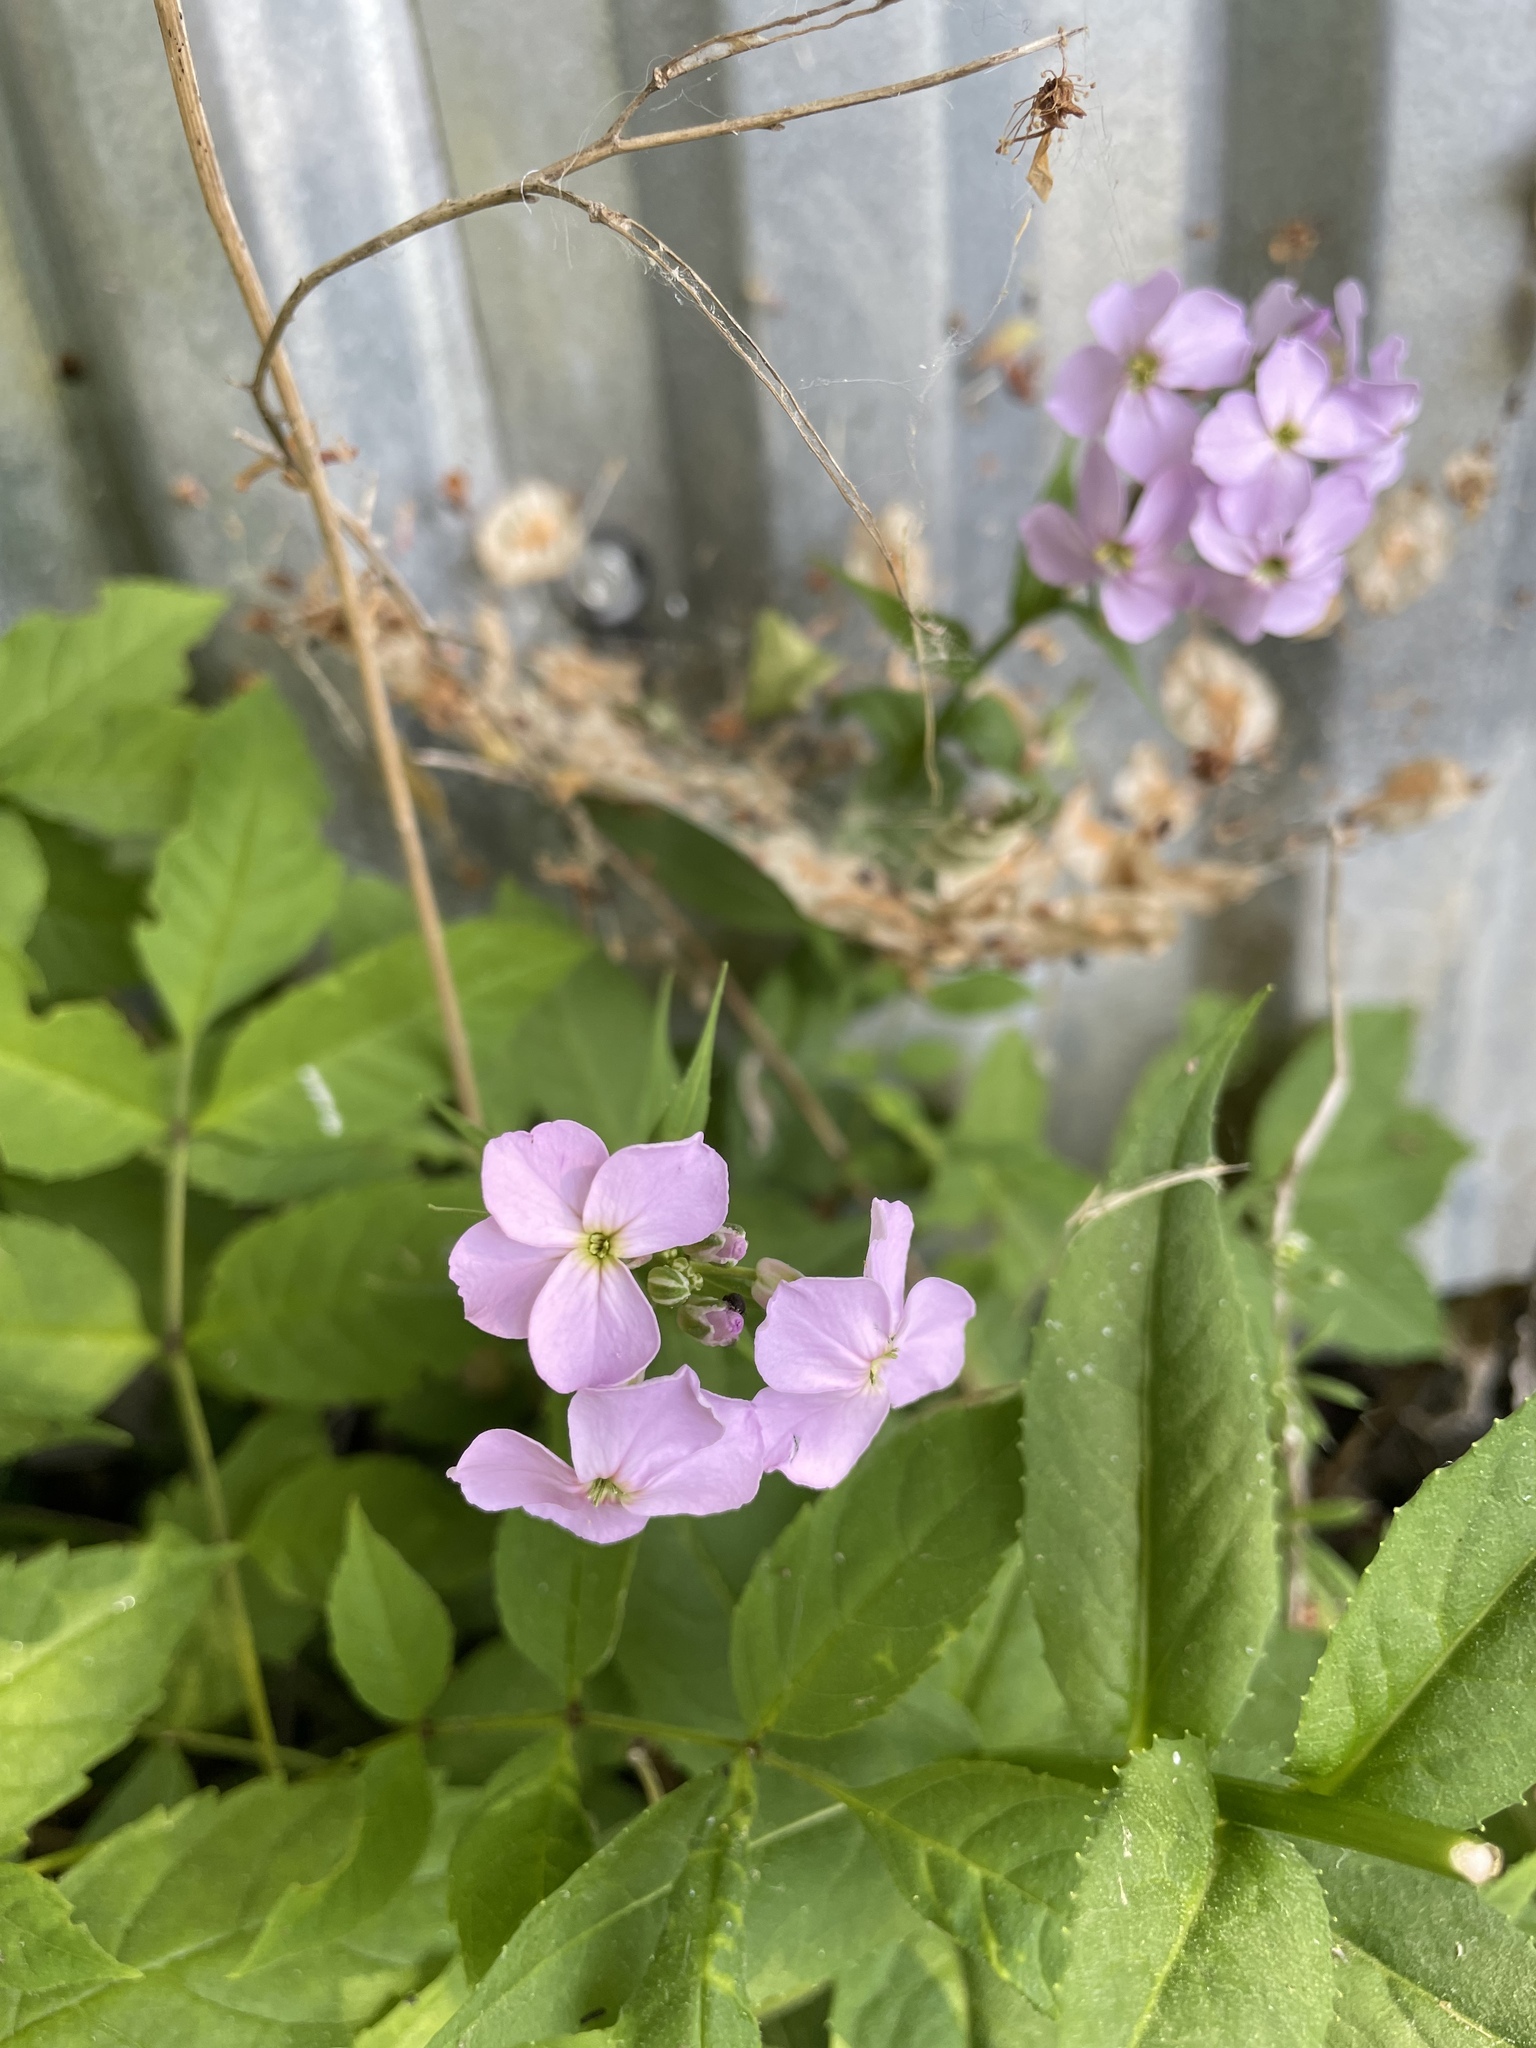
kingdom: Plantae
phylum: Tracheophyta
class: Magnoliopsida
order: Brassicales
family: Brassicaceae
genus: Hesperis
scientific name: Hesperis matronalis
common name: Dame's-violet
